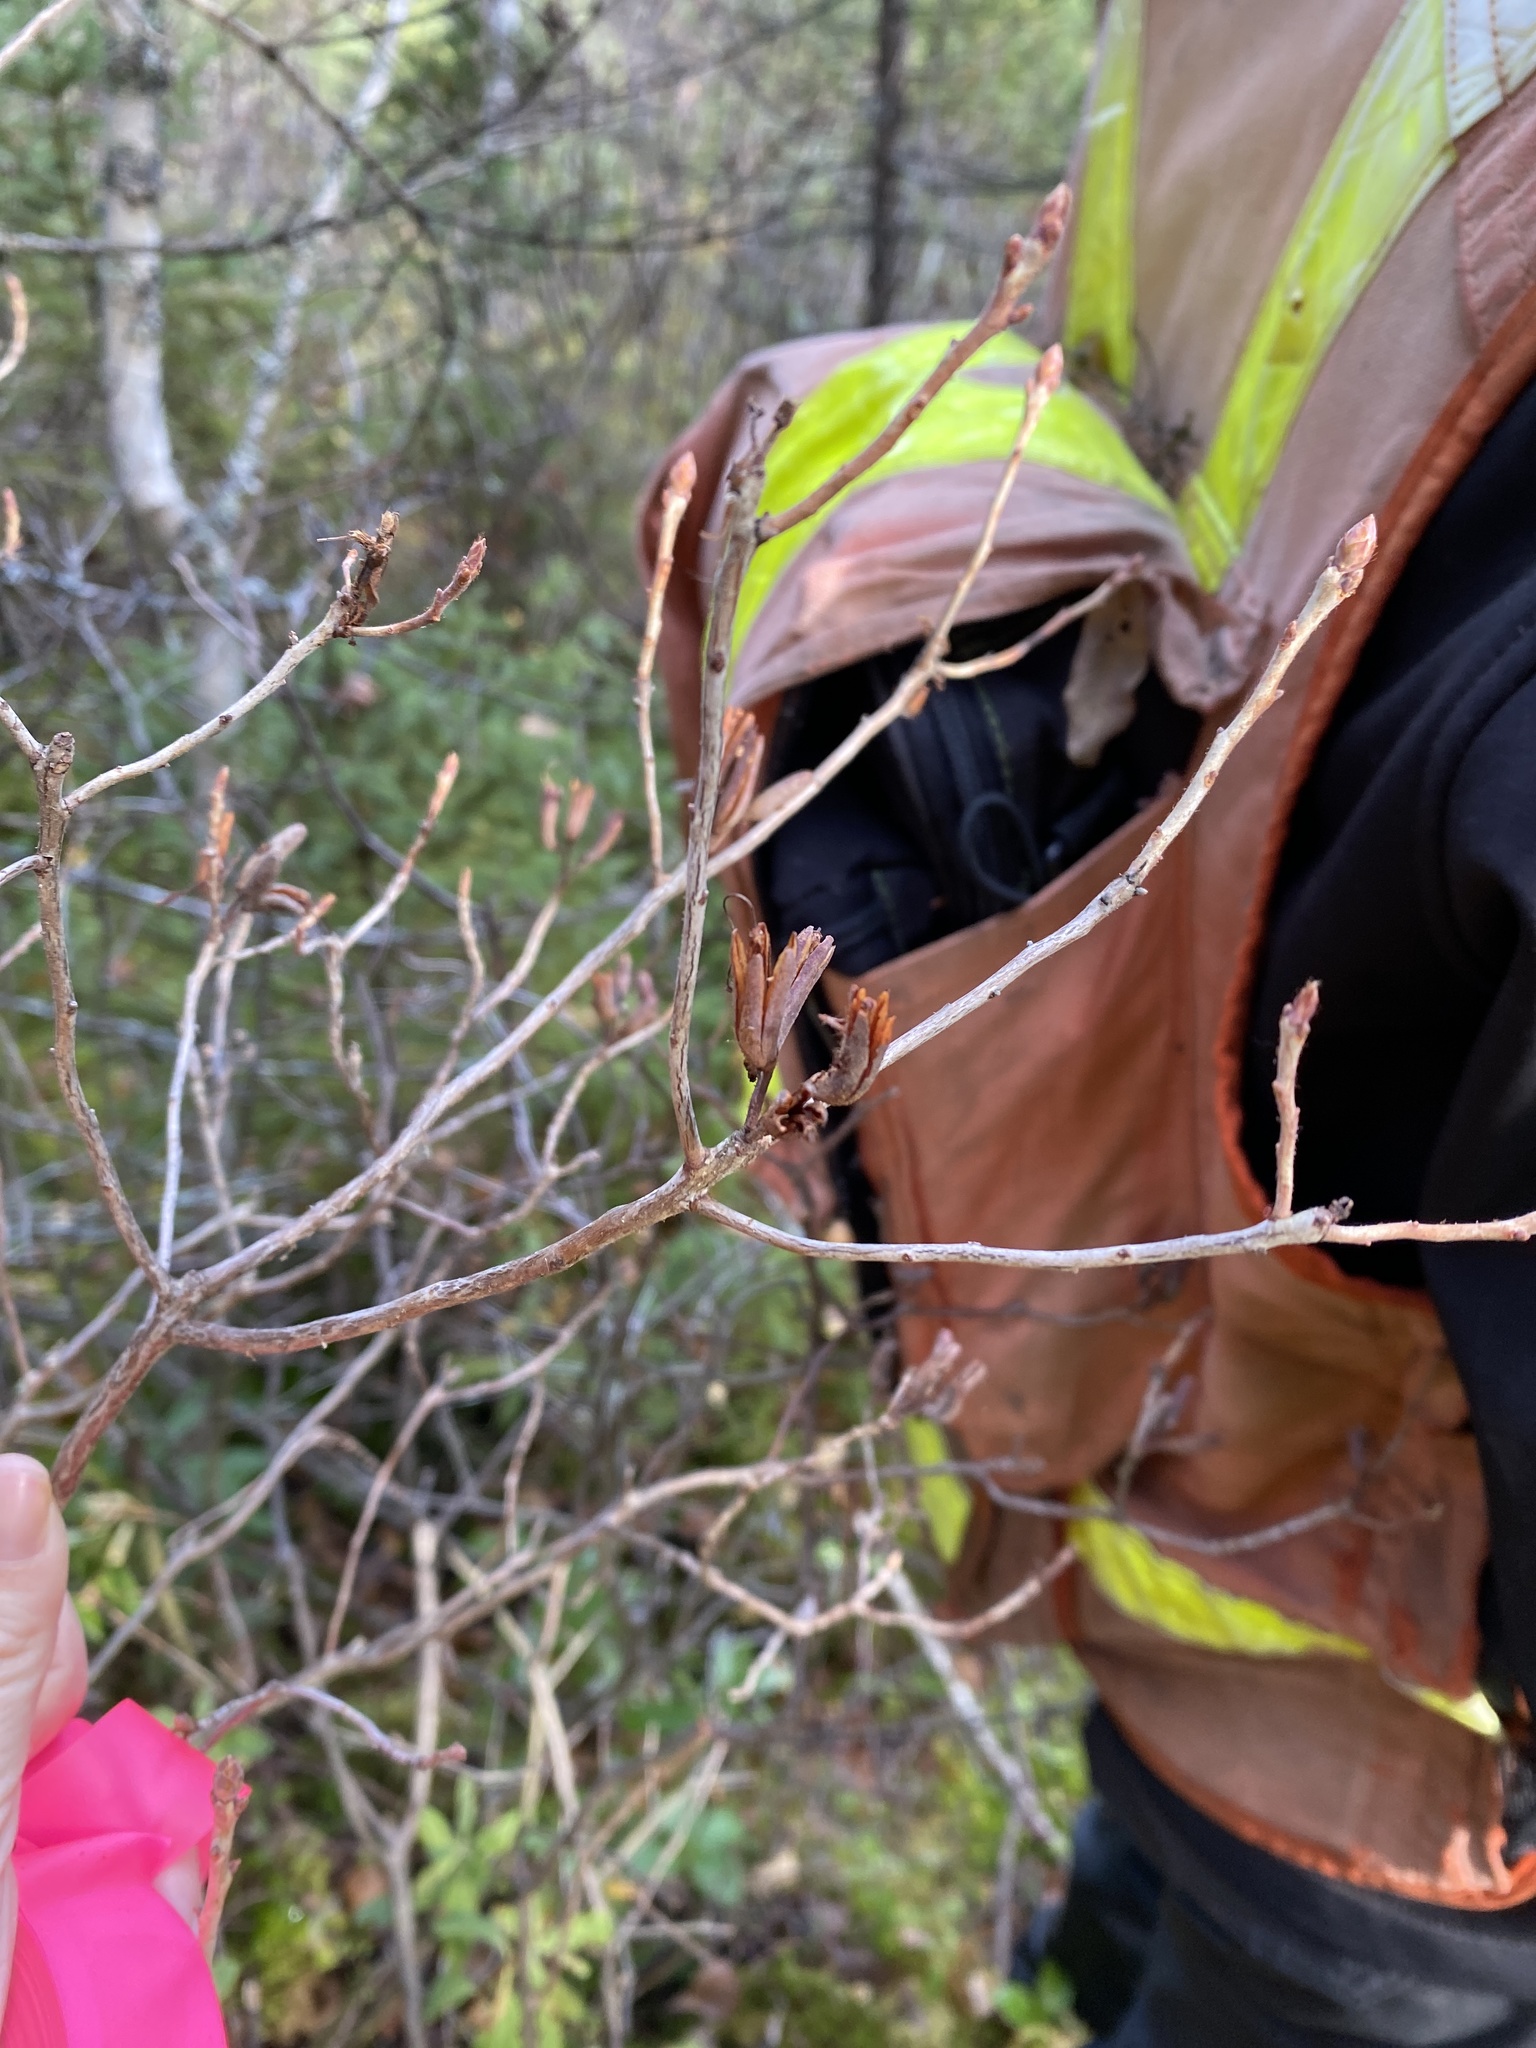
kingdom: Plantae
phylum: Tracheophyta
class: Magnoliopsida
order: Ericales
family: Ericaceae
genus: Rhododendron
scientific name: Rhododendron canadense
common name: Rhodora
